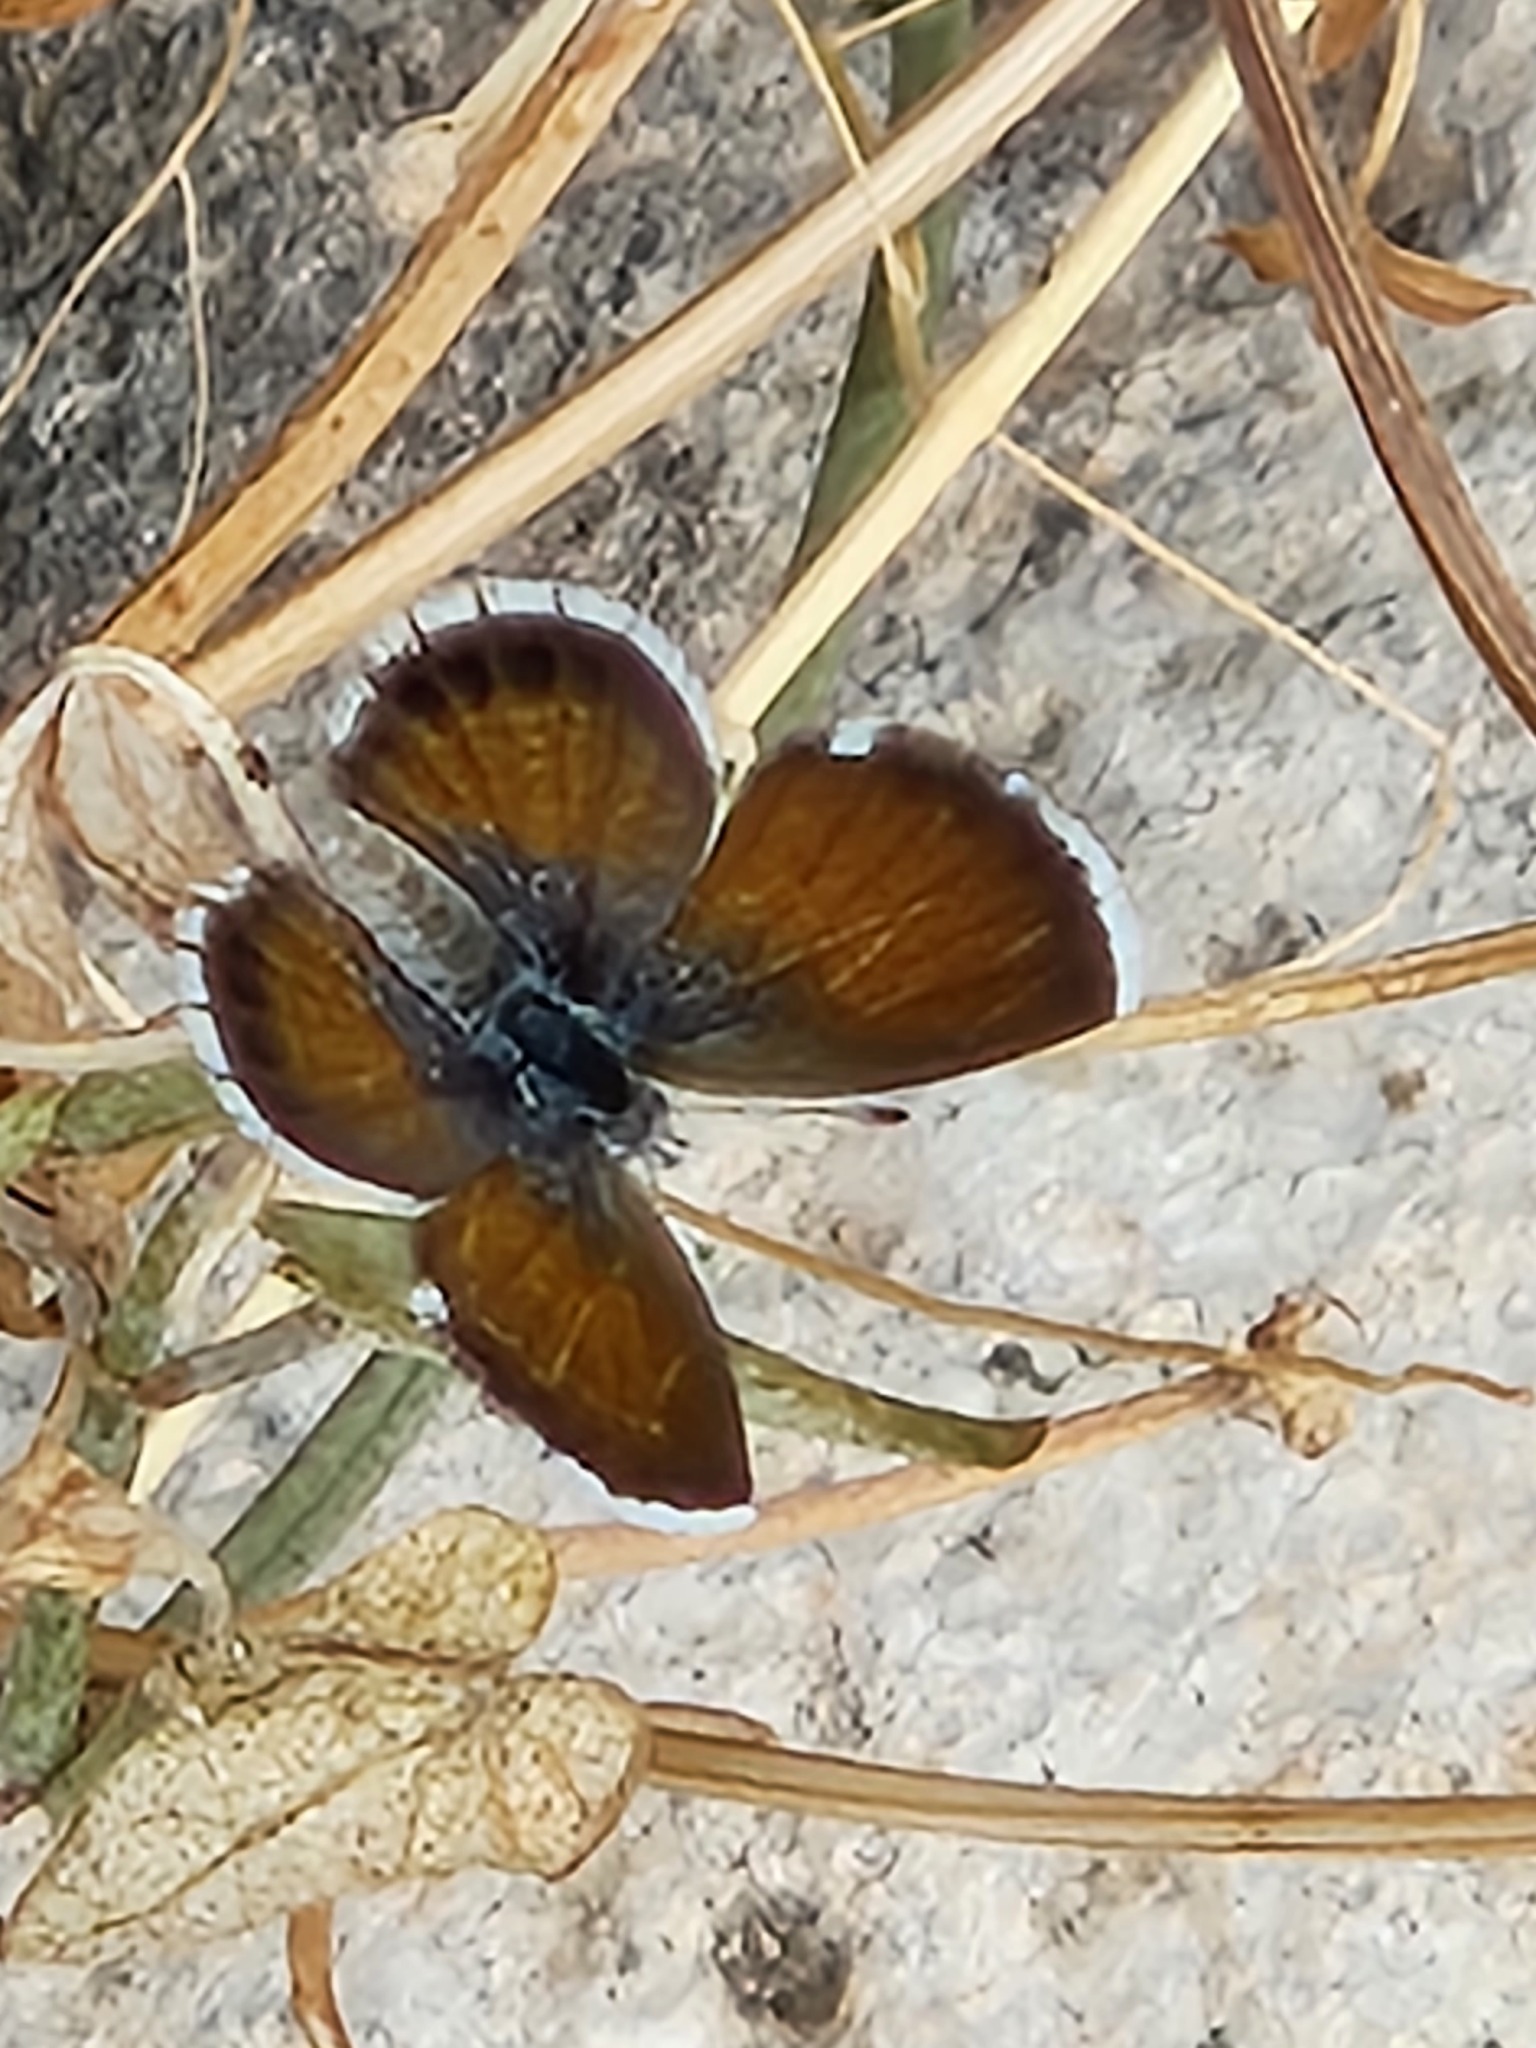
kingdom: Animalia
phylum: Arthropoda
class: Insecta
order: Lepidoptera
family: Lycaenidae
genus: Brephidium
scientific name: Brephidium exilis
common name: Pygmy blue
